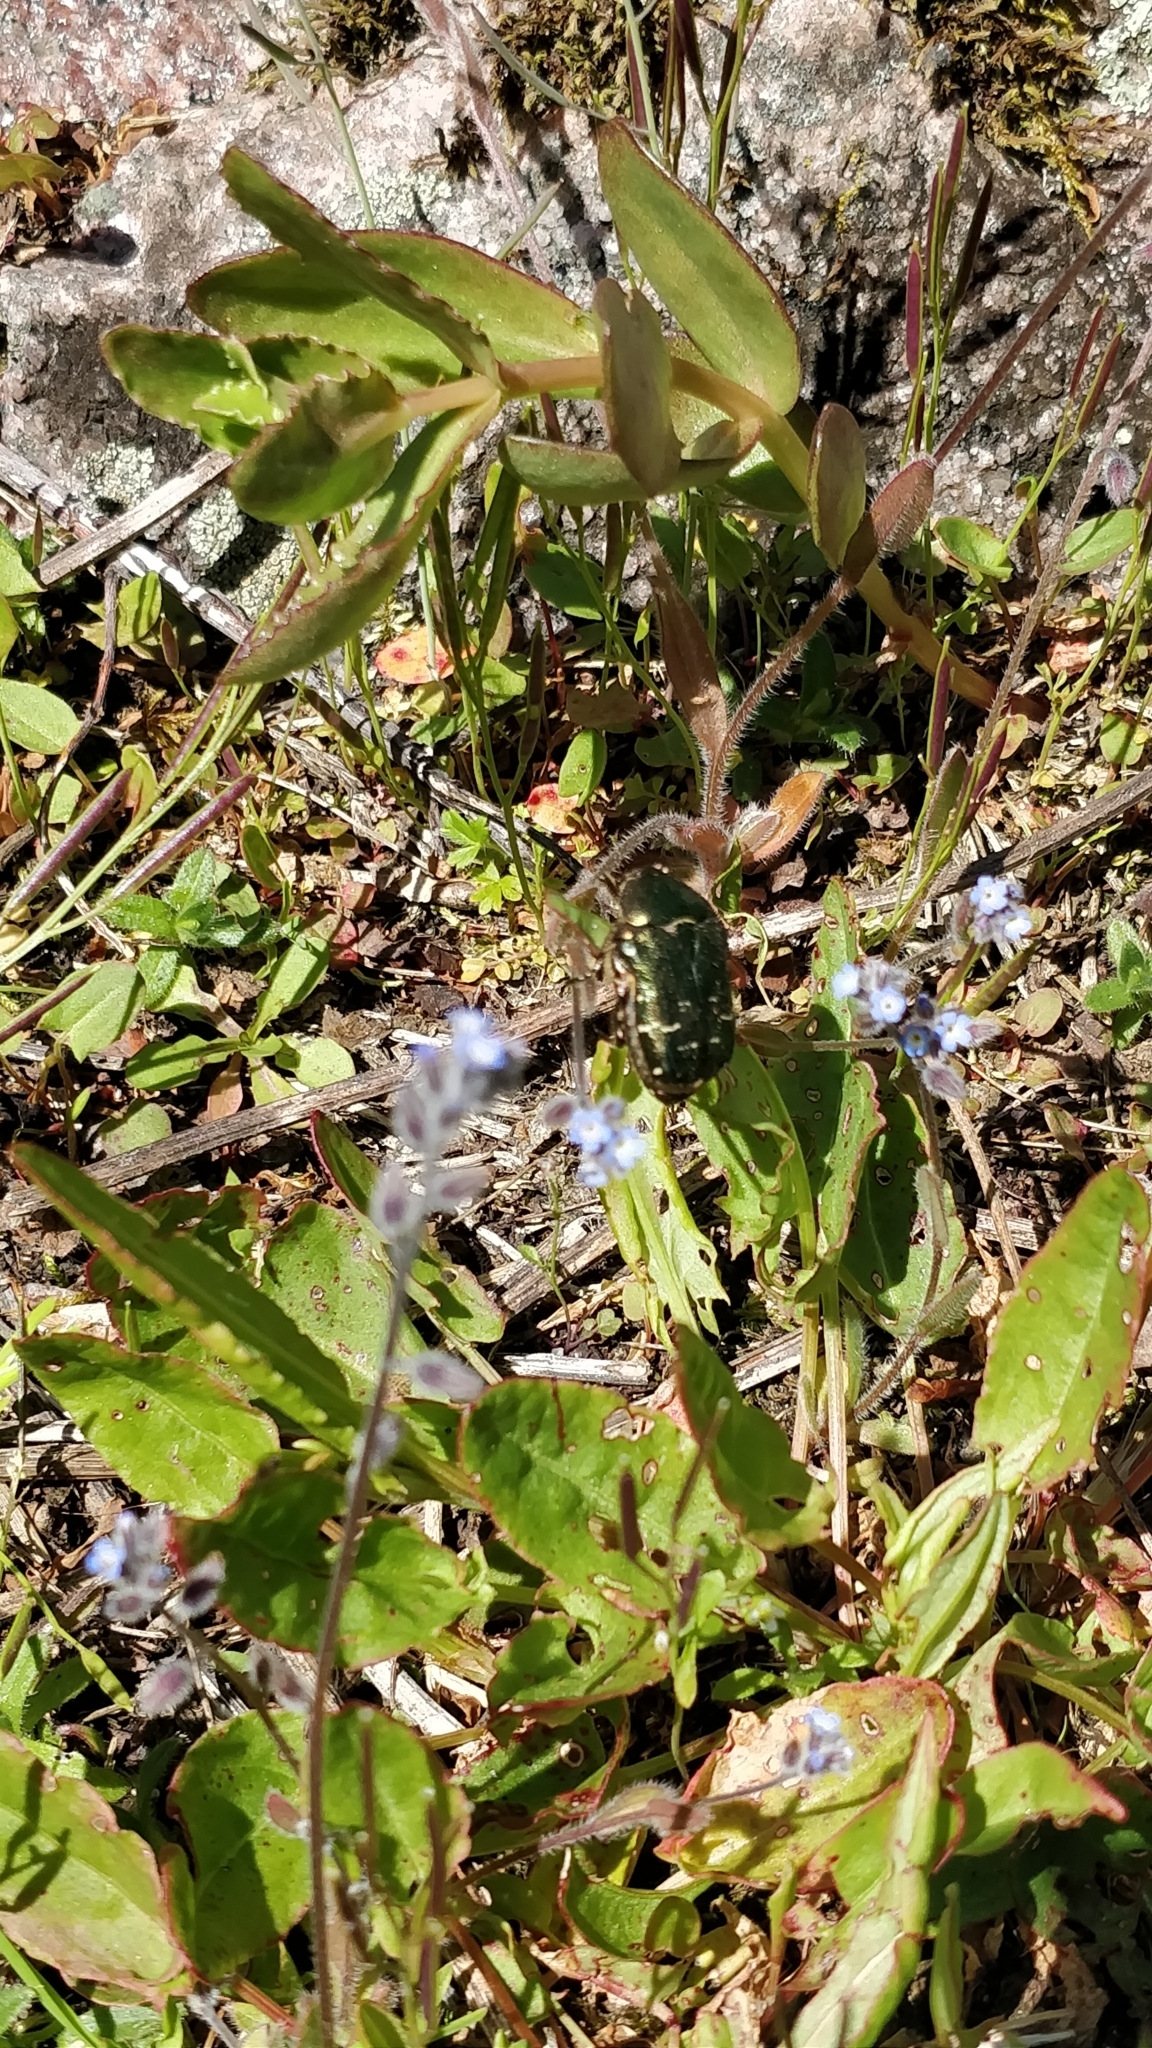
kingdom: Animalia
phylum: Arthropoda
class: Insecta
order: Coleoptera
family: Scarabaeidae
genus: Protaetia
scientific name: Protaetia cuprea
